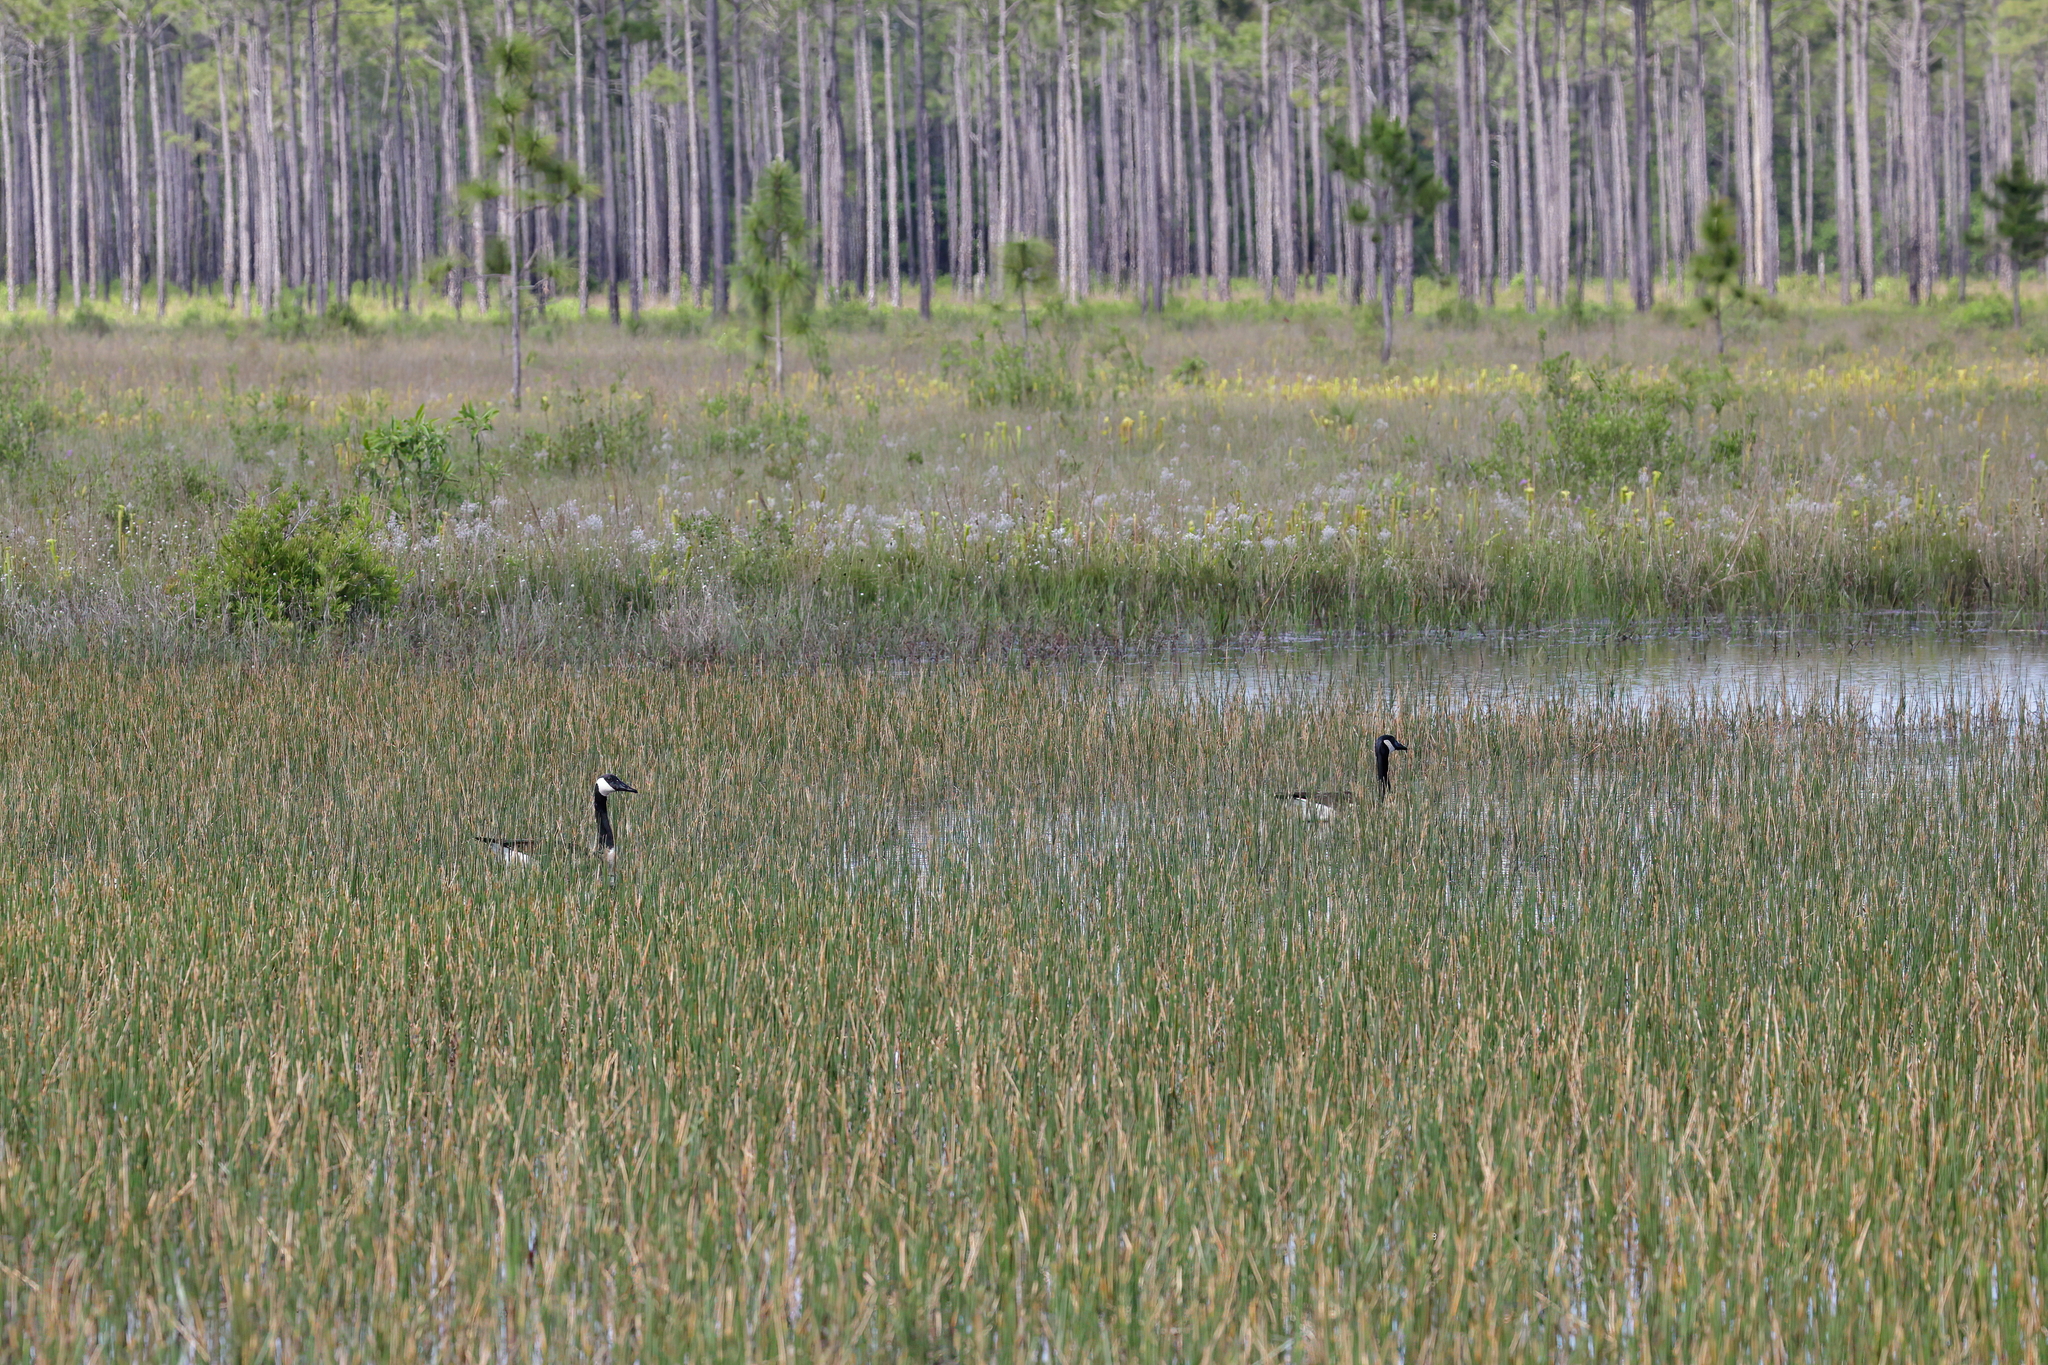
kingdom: Animalia
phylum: Chordata
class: Aves
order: Anseriformes
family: Anatidae
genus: Branta
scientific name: Branta canadensis
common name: Canada goose
